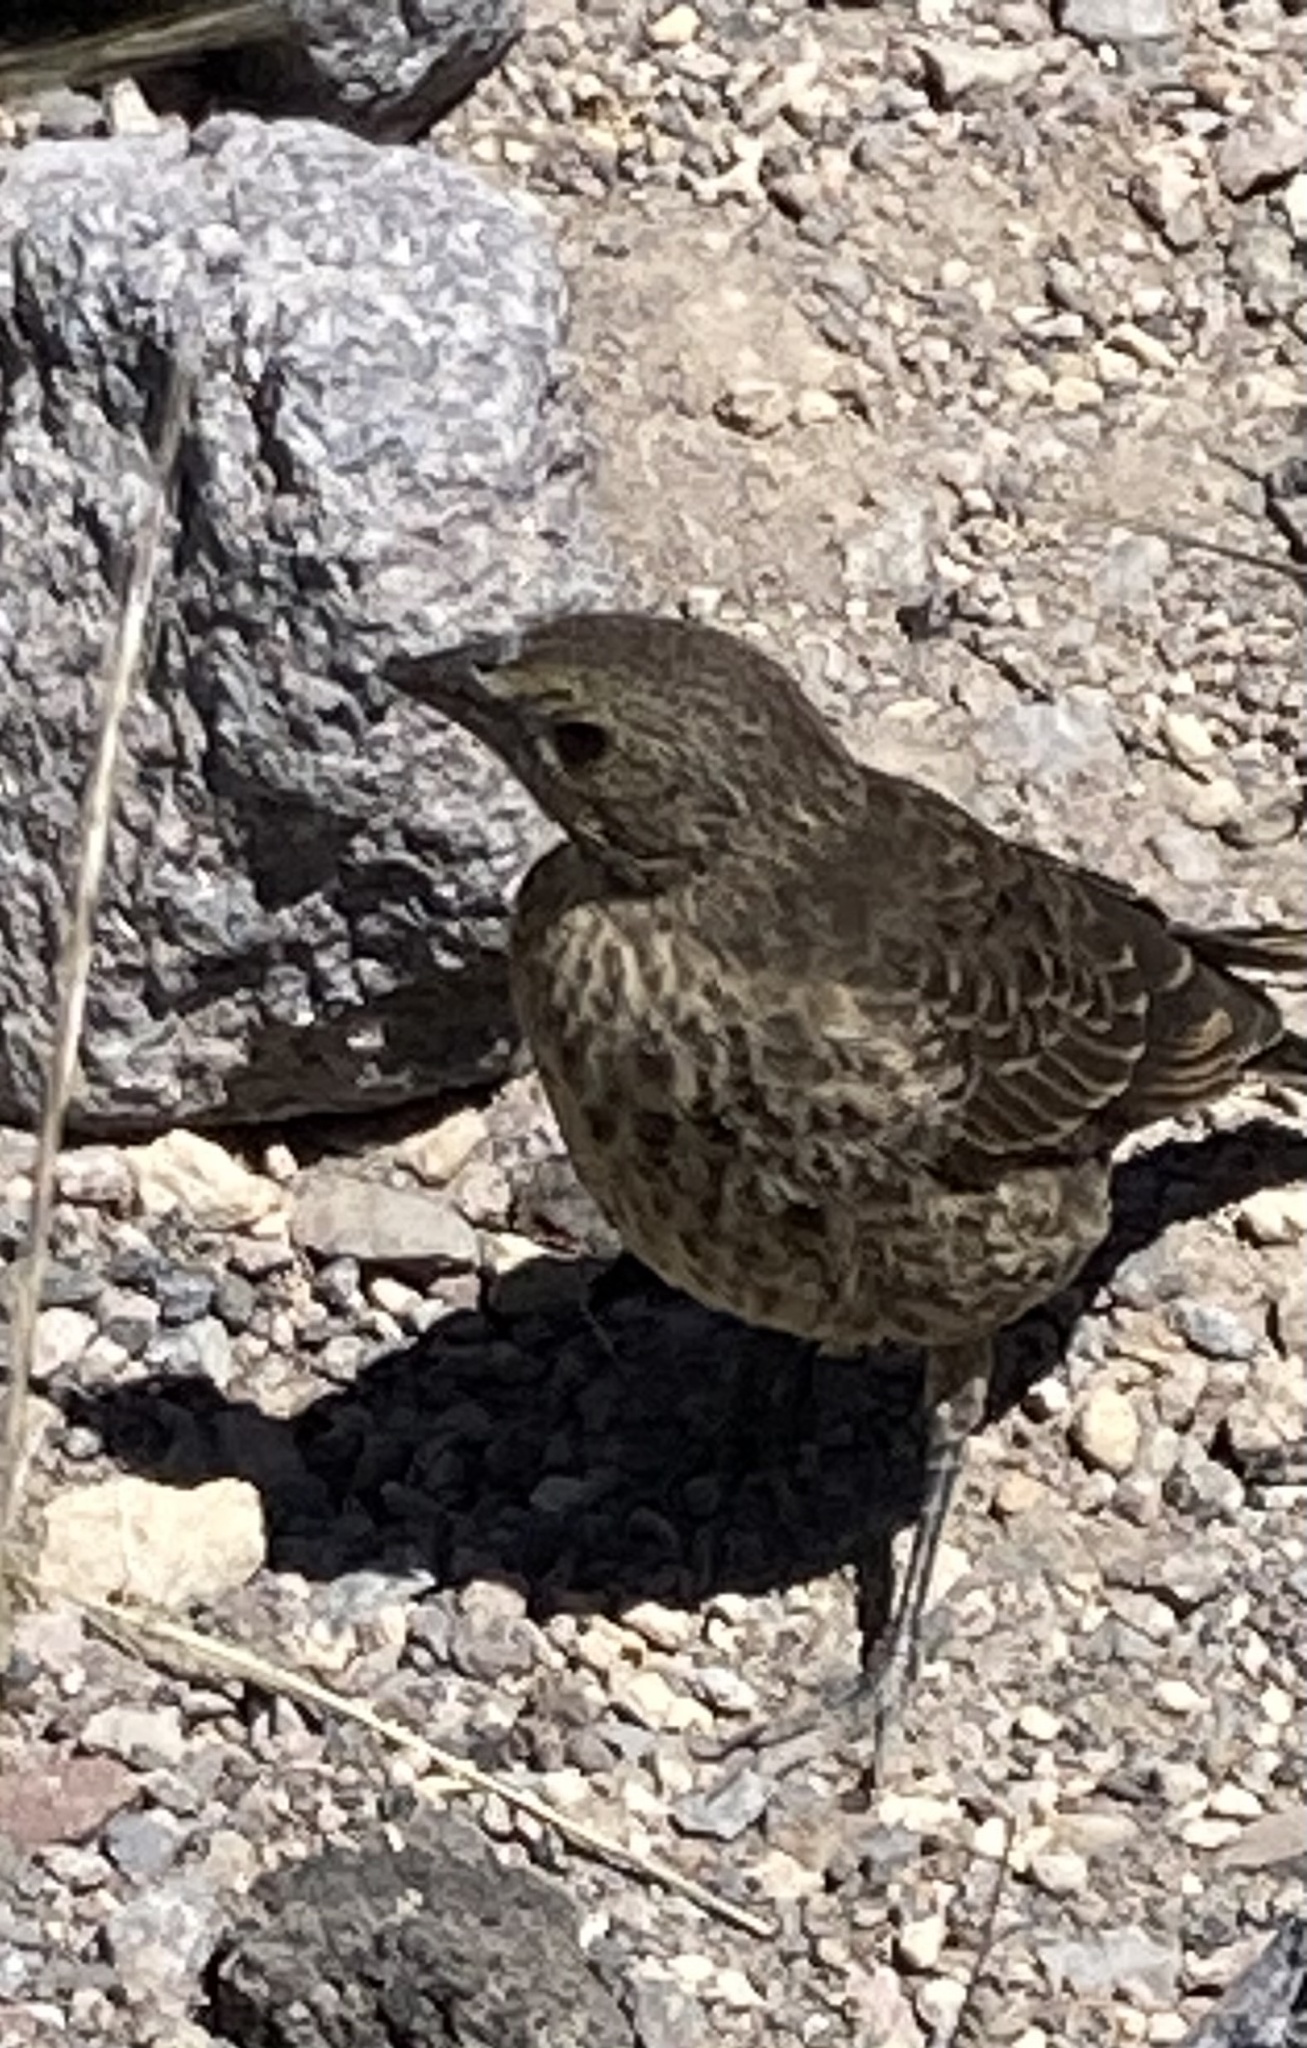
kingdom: Animalia
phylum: Chordata
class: Aves
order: Passeriformes
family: Icteridae
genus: Molothrus
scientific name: Molothrus ater
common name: Brown-headed cowbird
